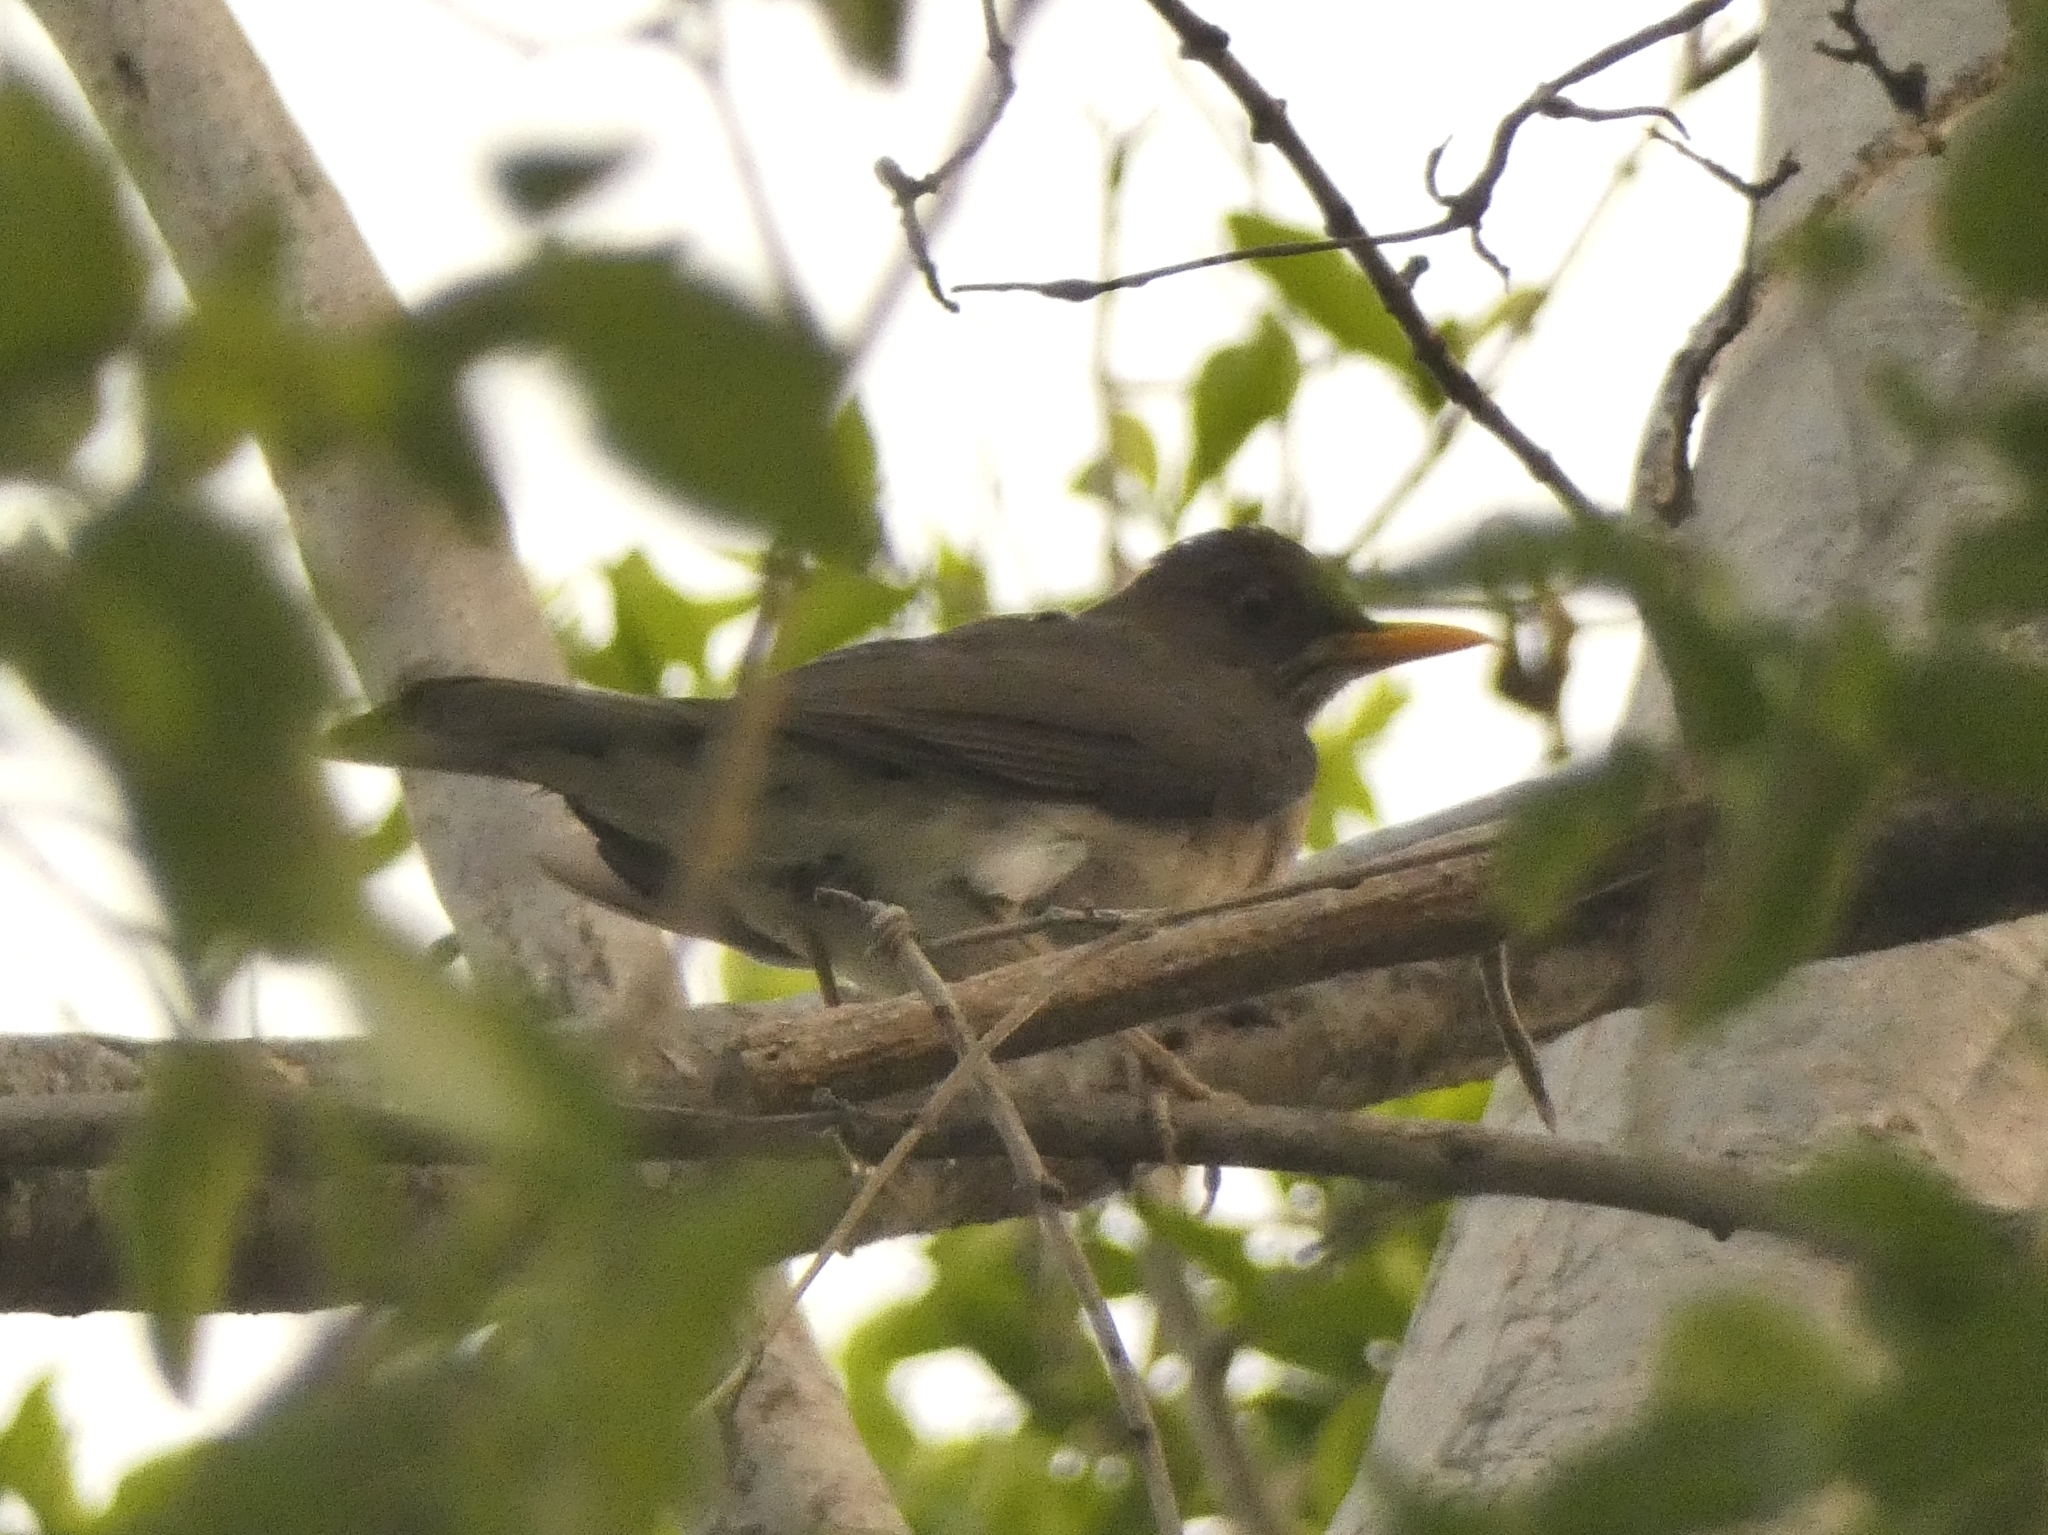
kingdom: Animalia
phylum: Chordata
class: Aves
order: Passeriformes
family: Turdidae
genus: Turdus
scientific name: Turdus amaurochalinus
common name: Creamy-bellied thrush
